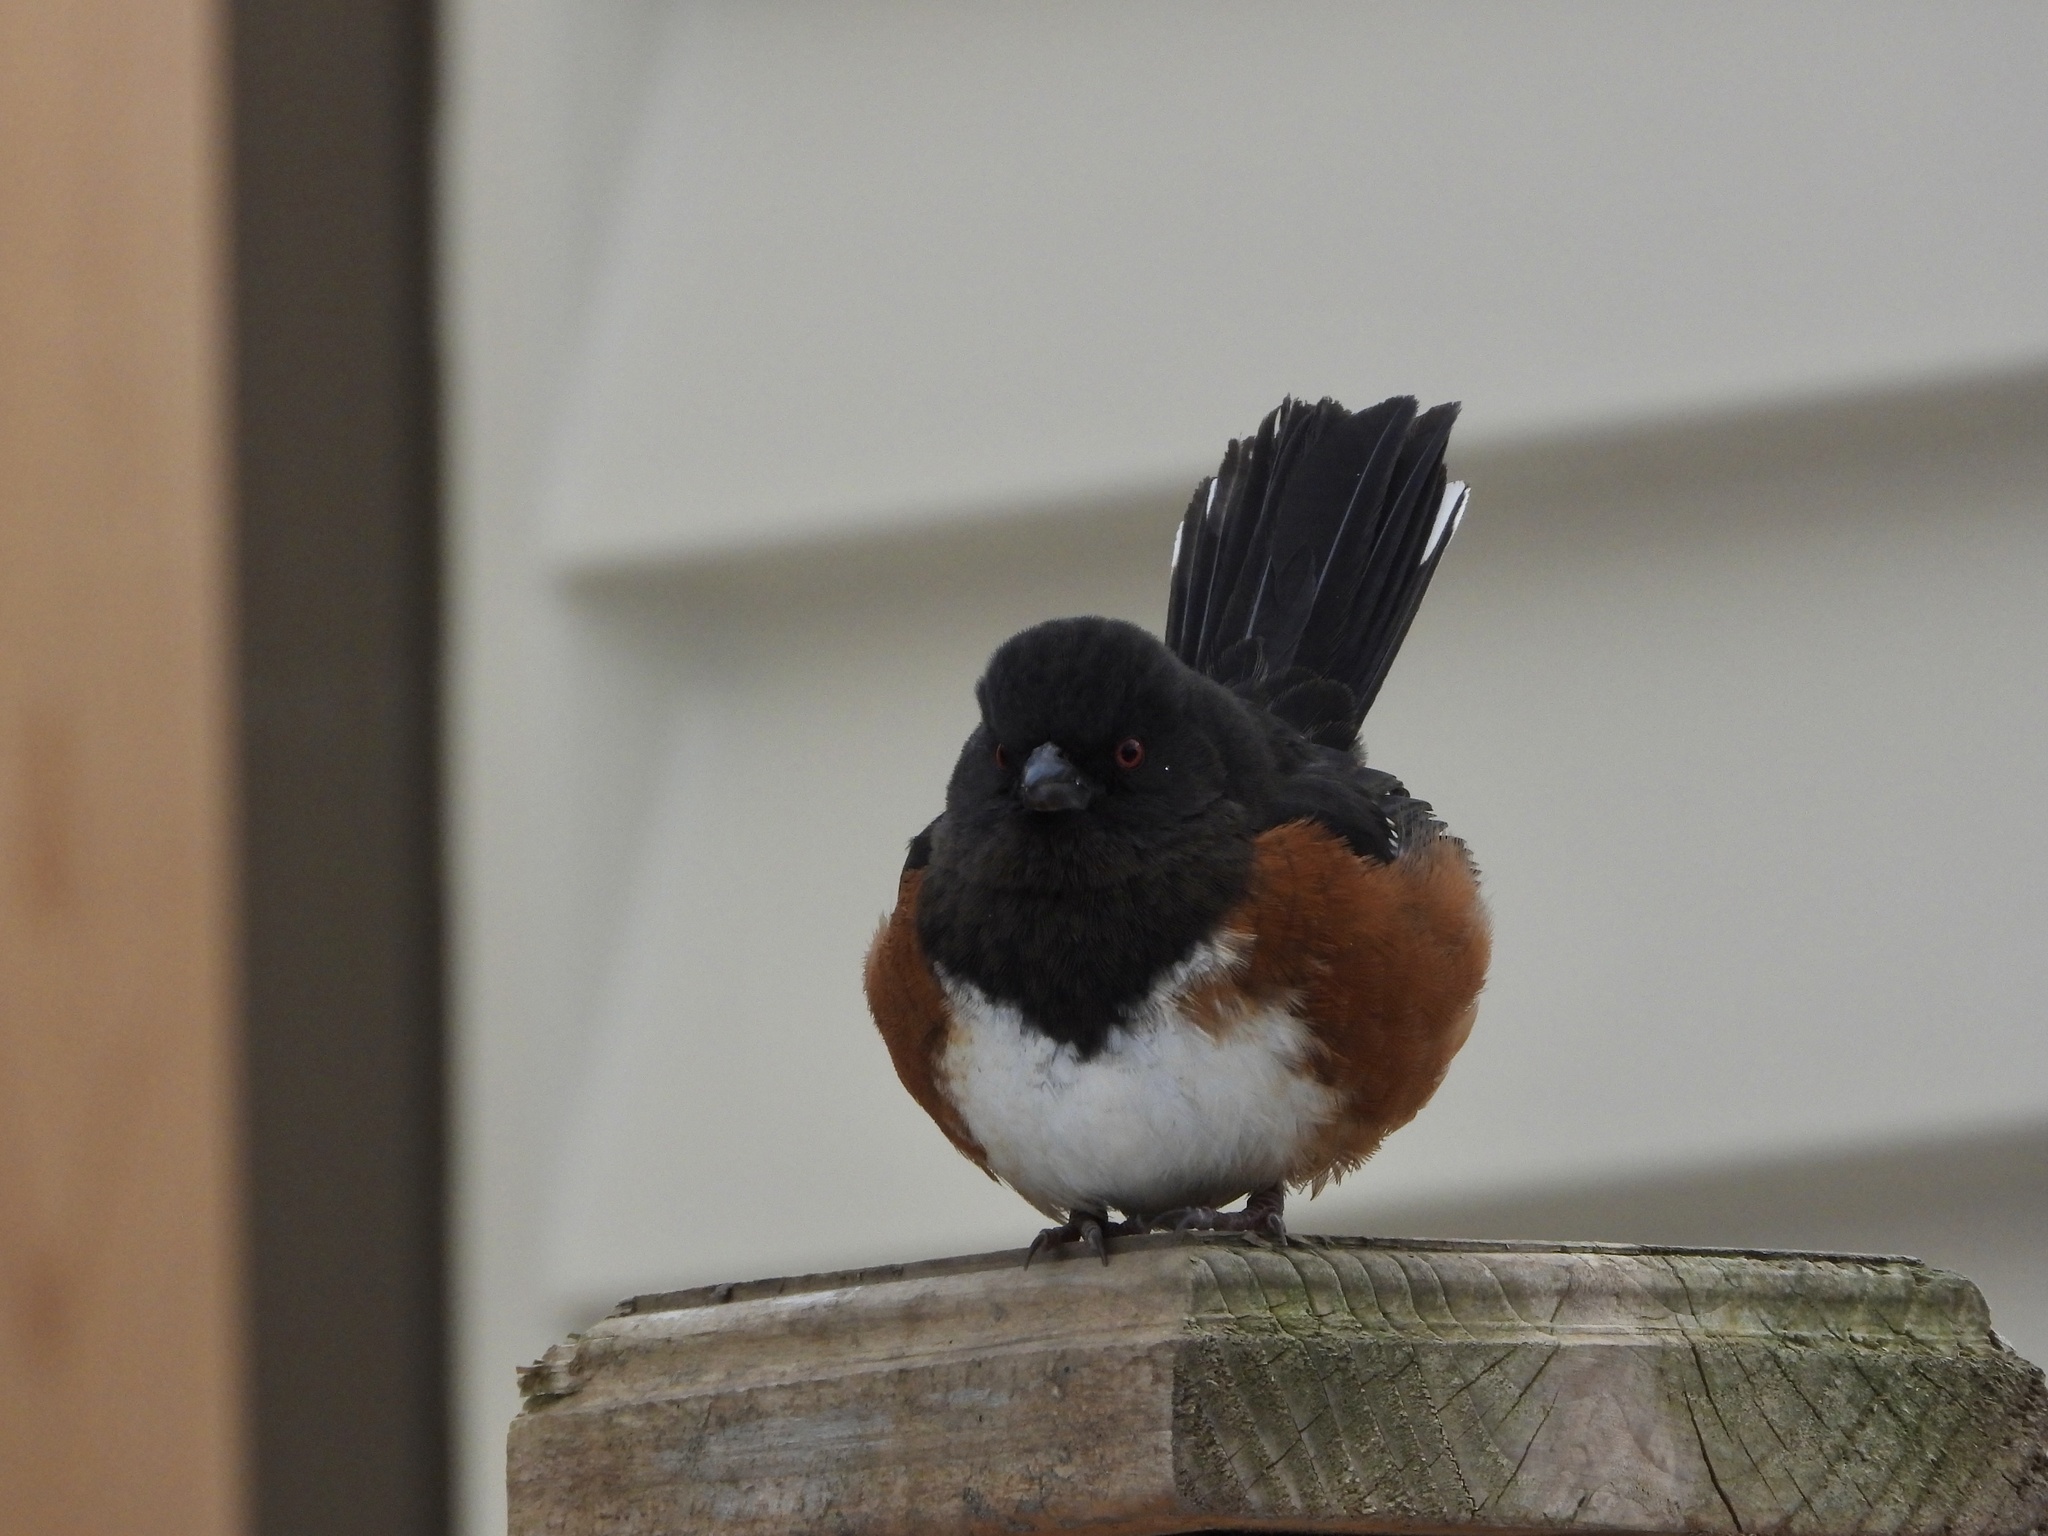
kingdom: Animalia
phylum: Chordata
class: Aves
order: Passeriformes
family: Passerellidae
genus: Pipilo
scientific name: Pipilo maculatus
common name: Spotted towhee
